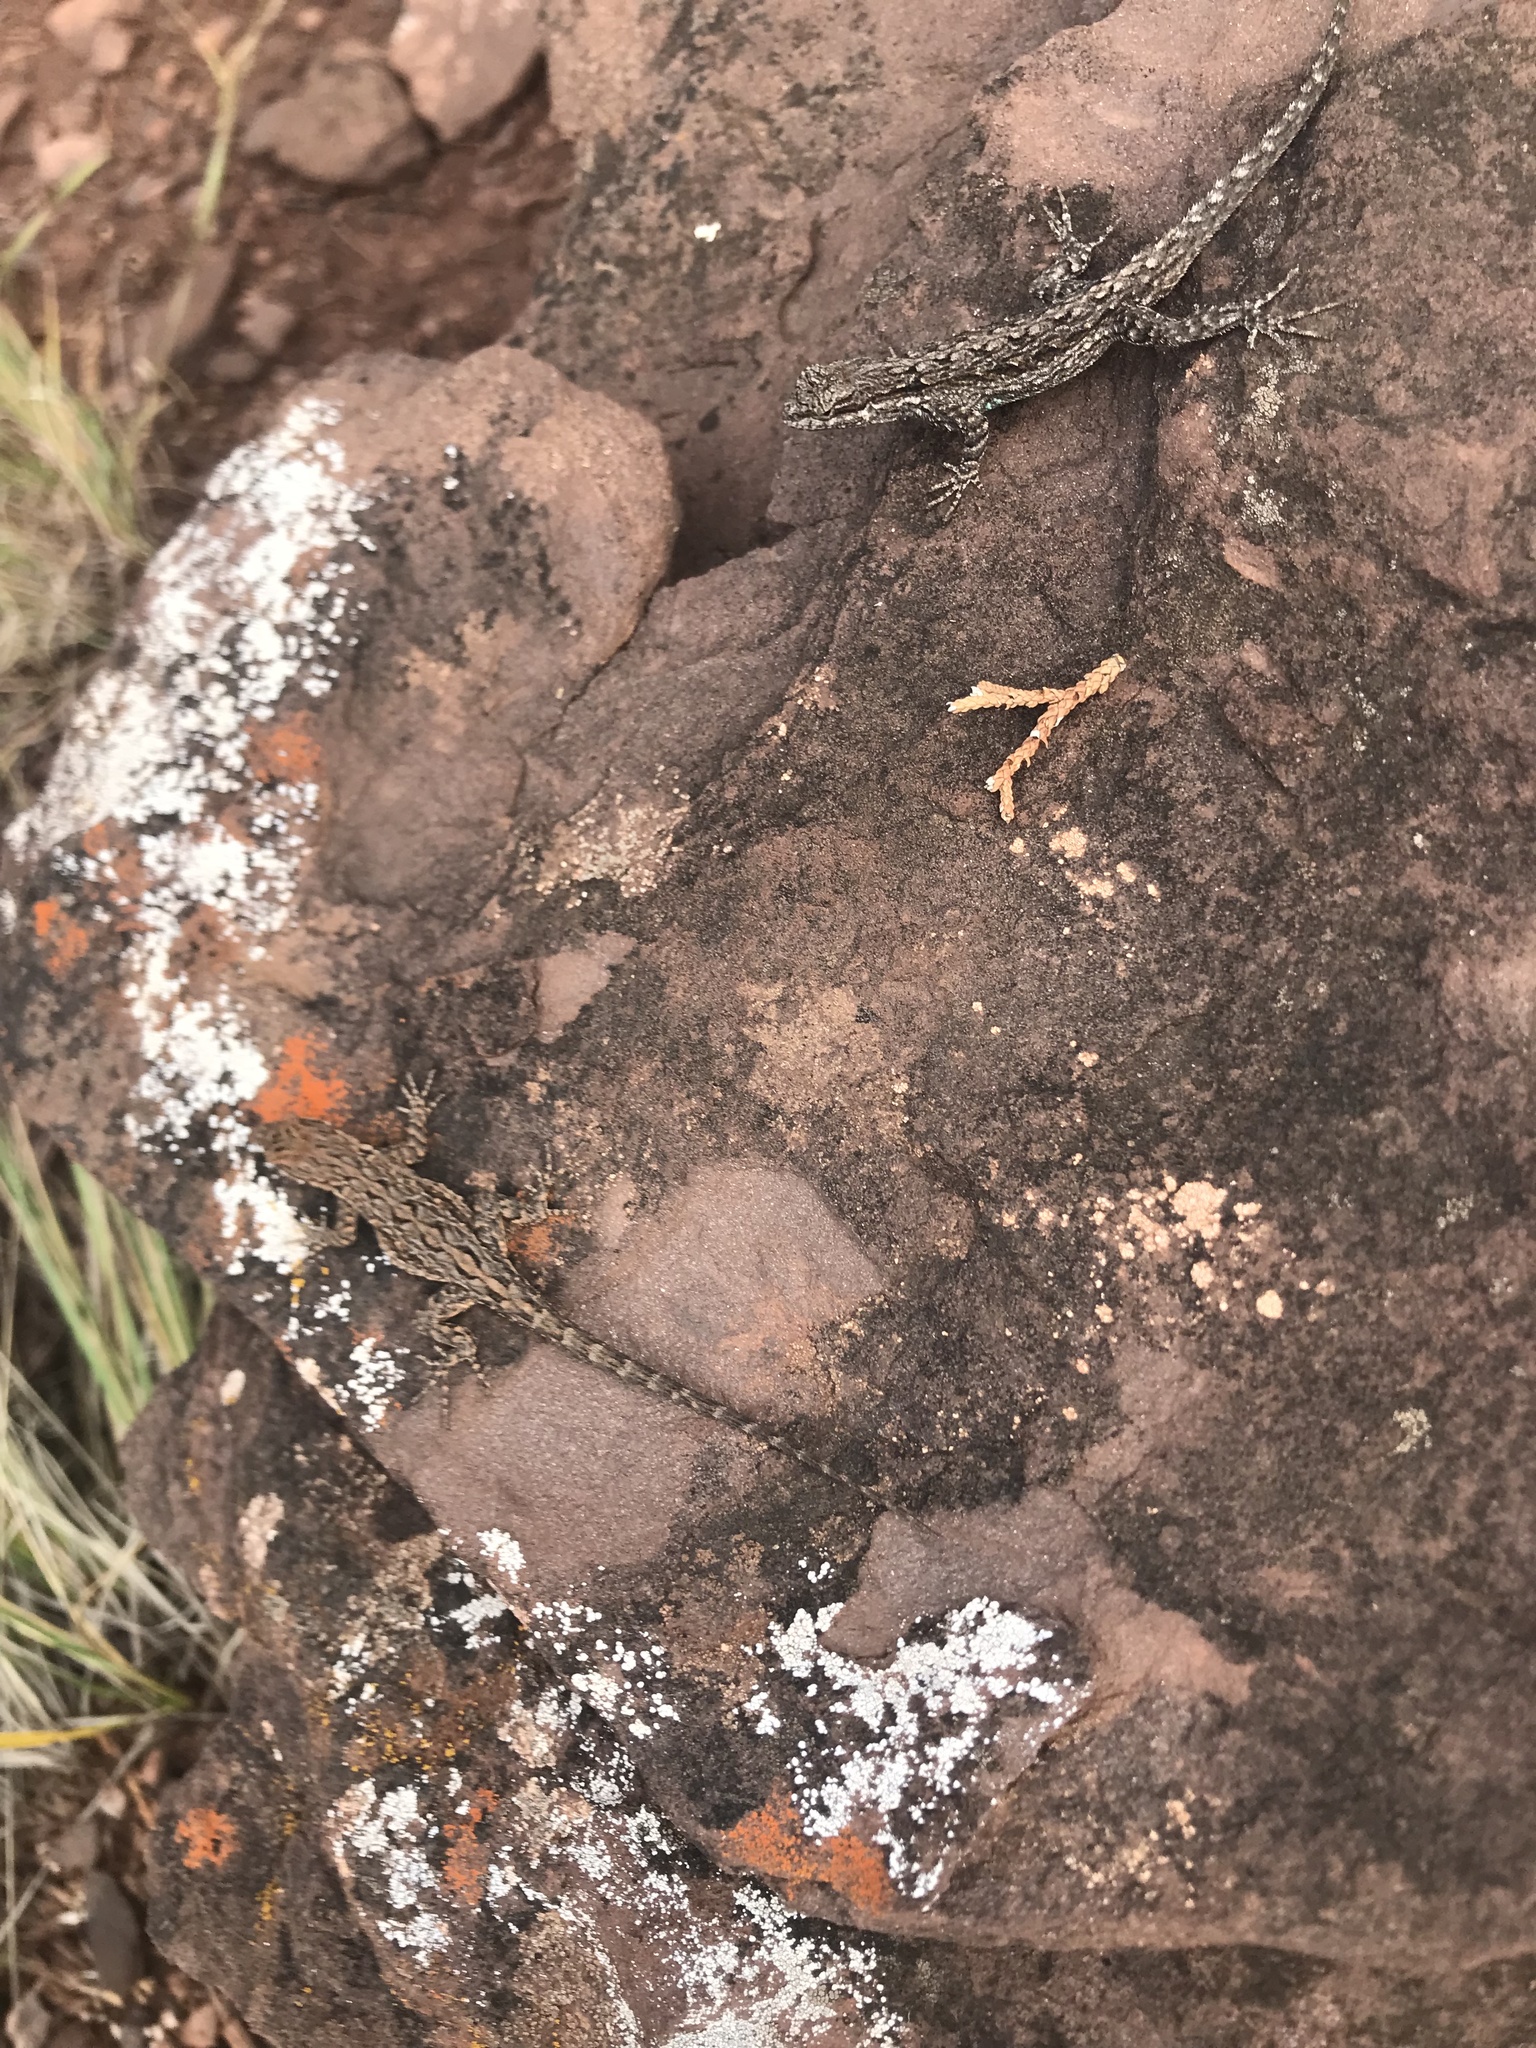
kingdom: Animalia
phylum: Chordata
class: Squamata
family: Phrynosomatidae
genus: Urosaurus
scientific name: Urosaurus ornatus
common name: Ornate tree lizard
